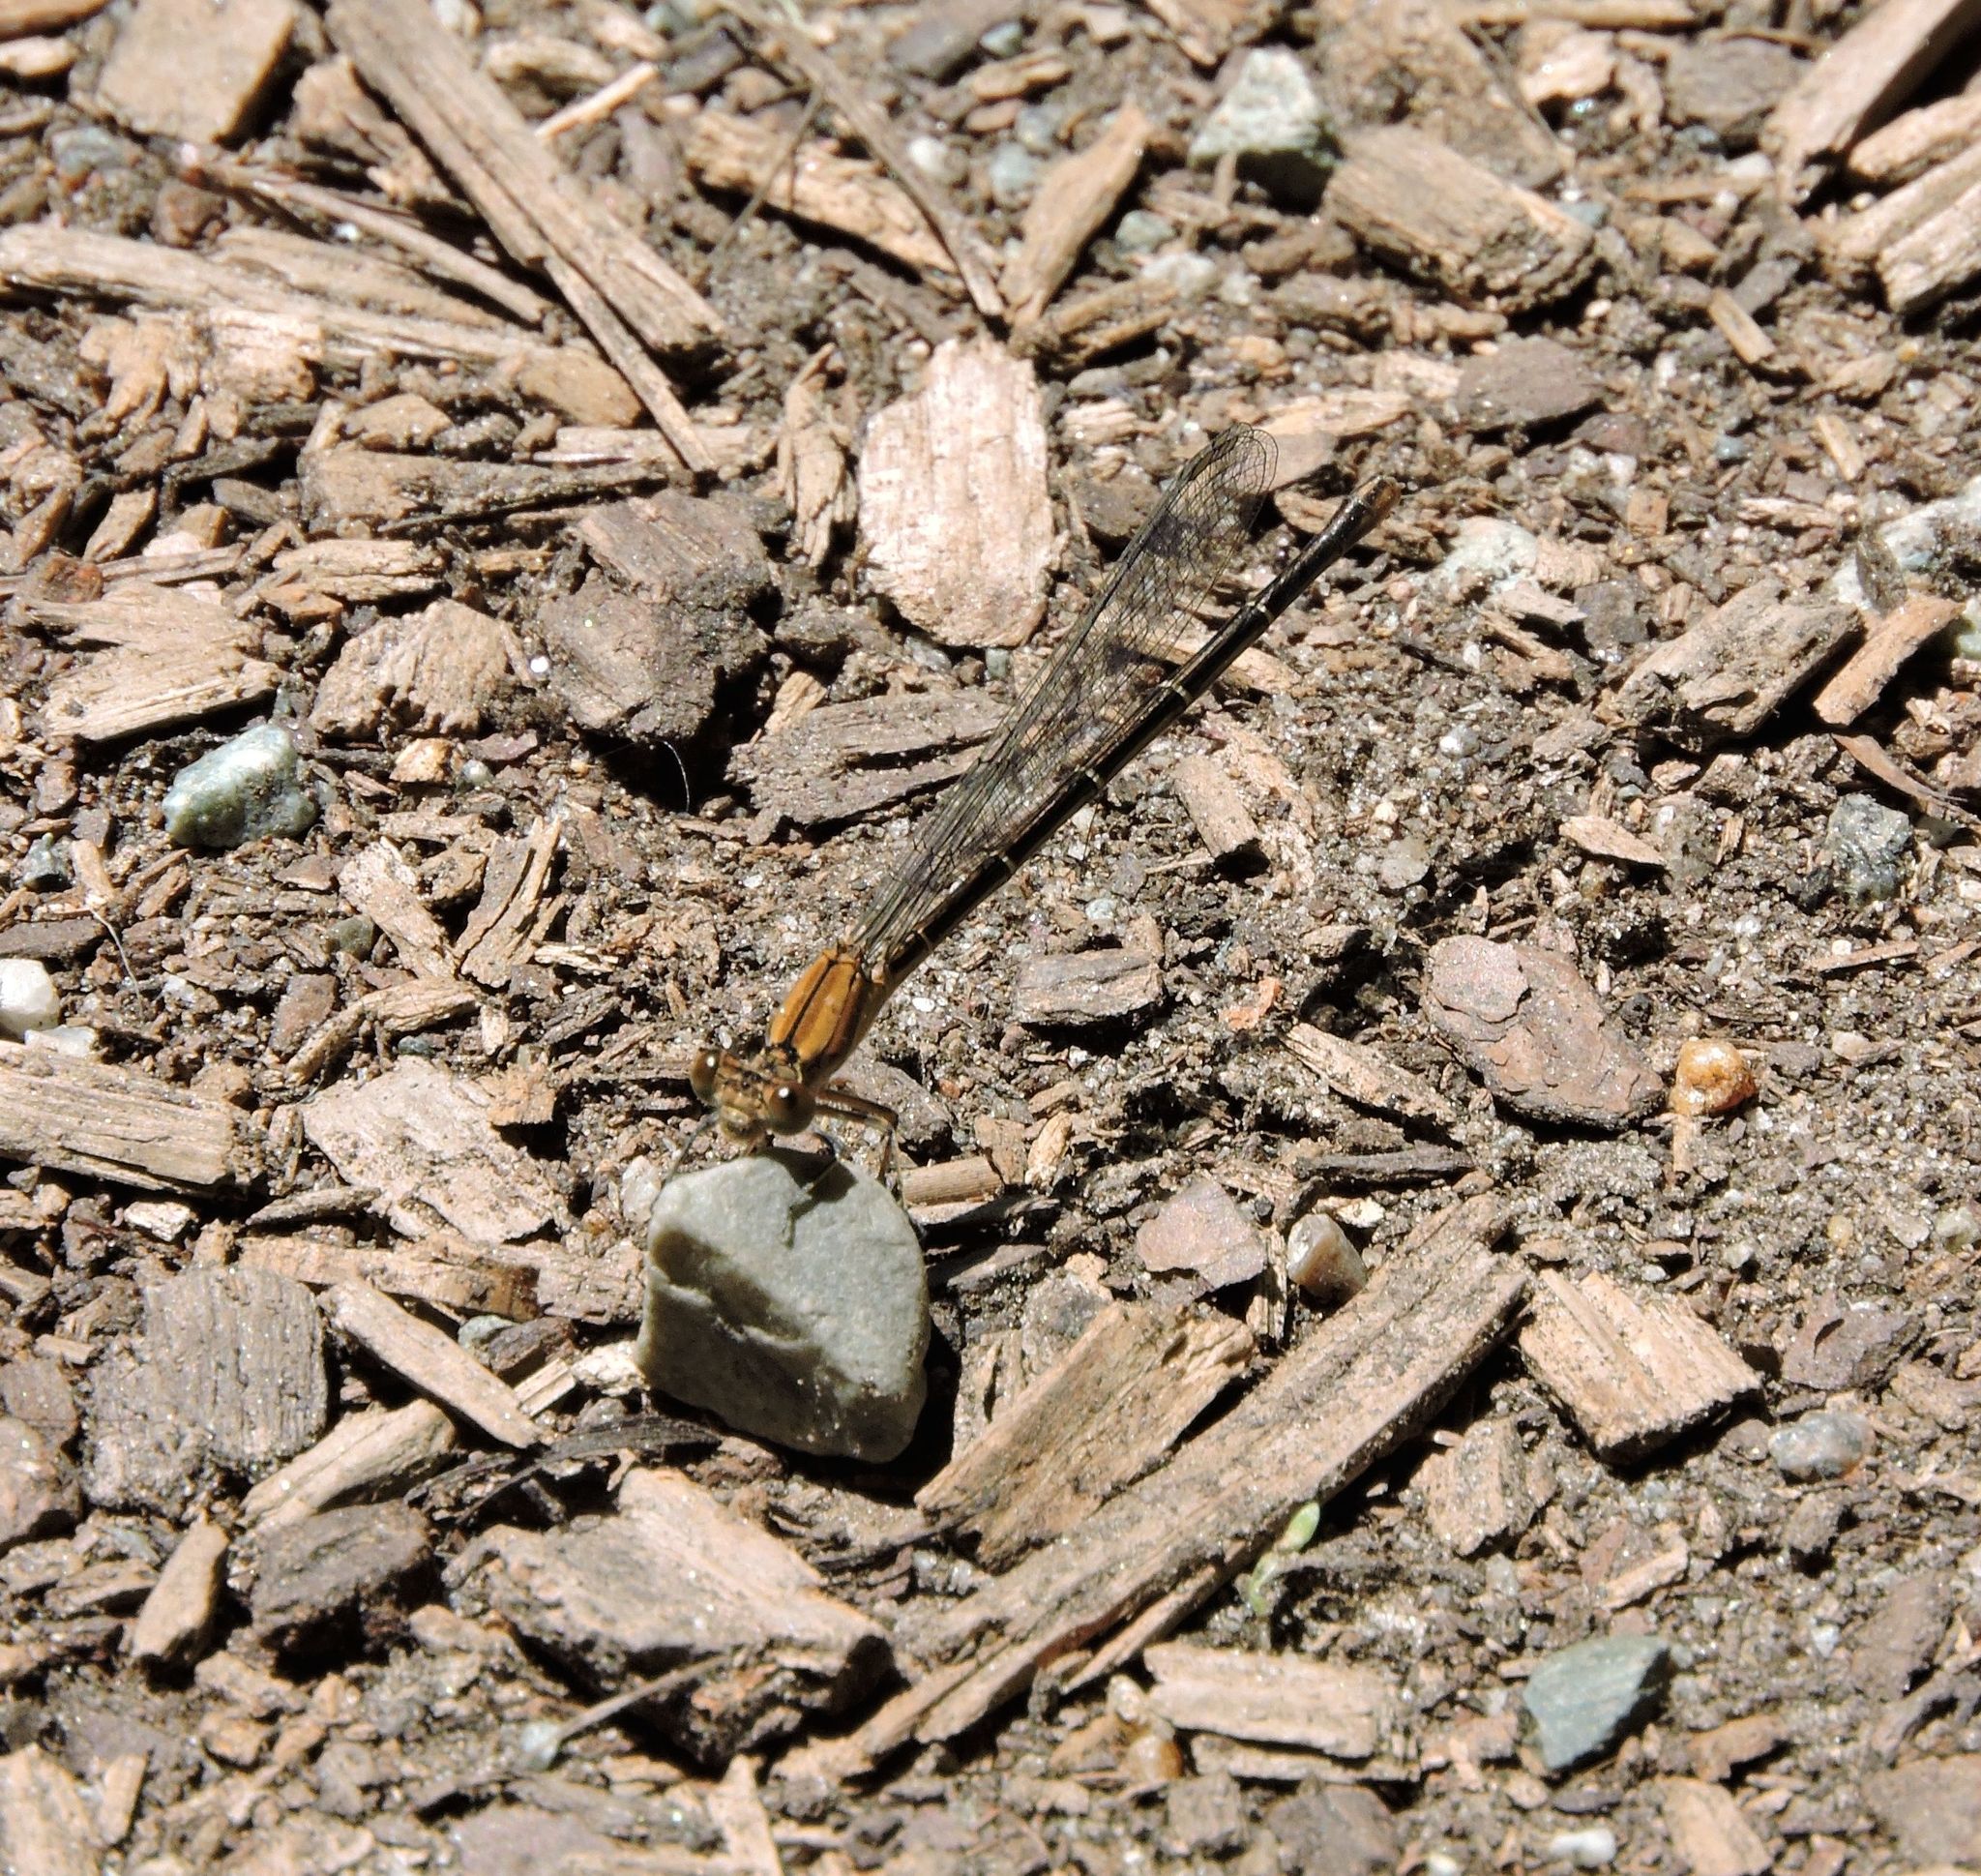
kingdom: Animalia
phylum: Arthropoda
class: Insecta
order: Odonata
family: Coenagrionidae
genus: Argia
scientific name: Argia apicalis
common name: Blue-fronted dancer
